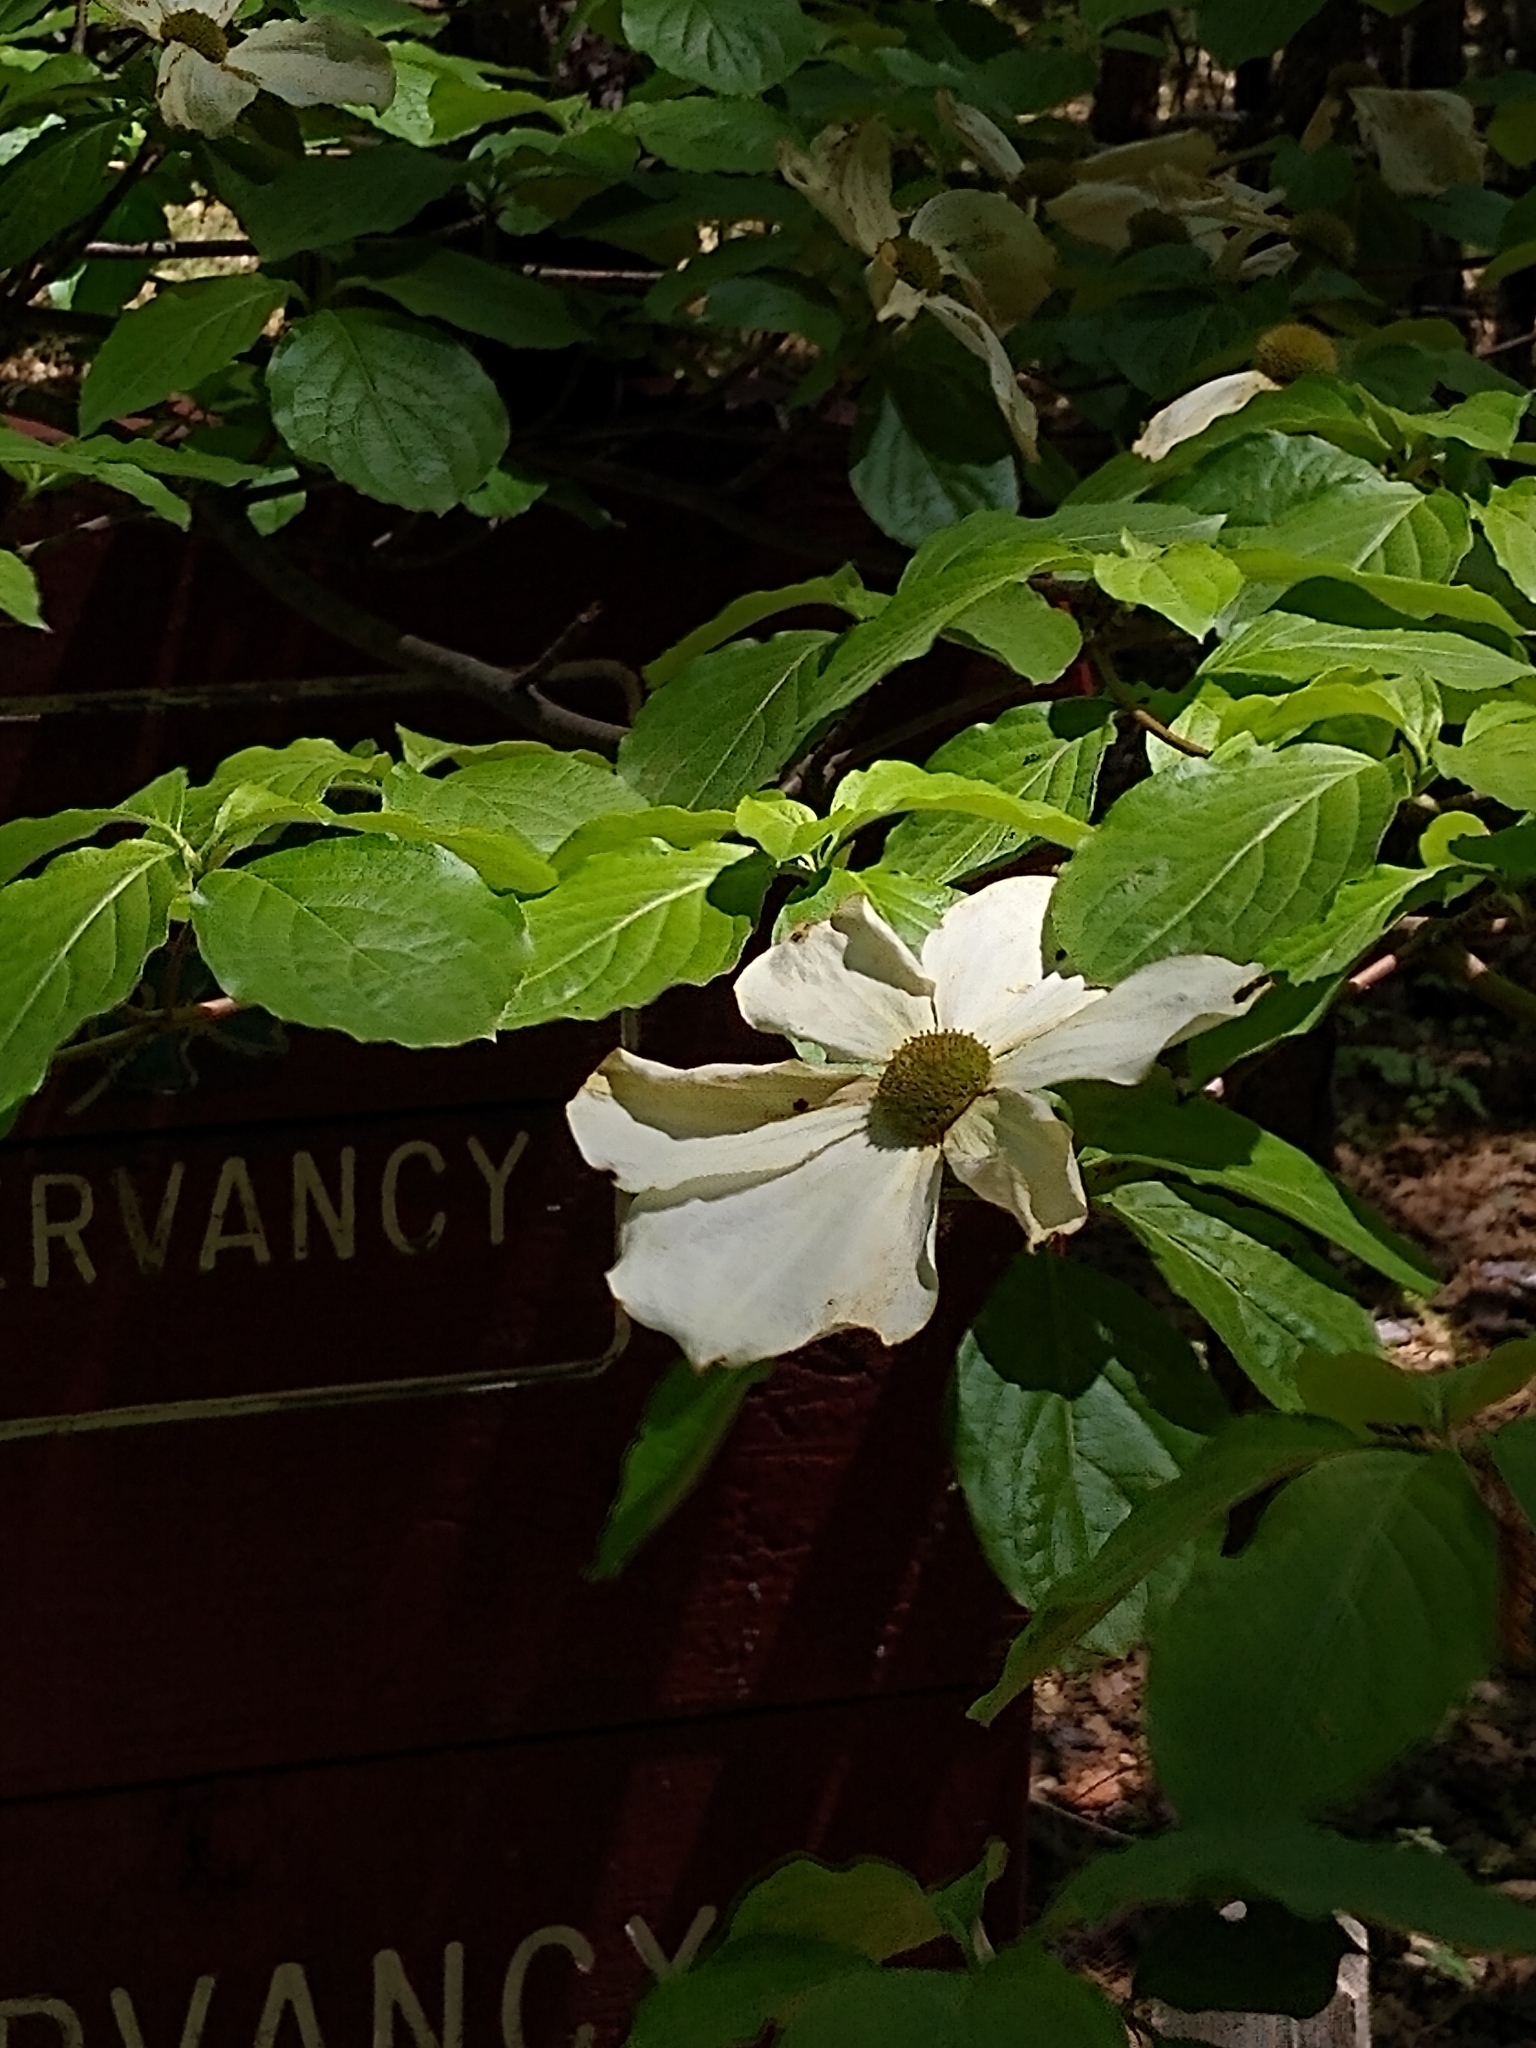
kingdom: Plantae
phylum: Tracheophyta
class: Magnoliopsida
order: Cornales
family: Cornaceae
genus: Cornus
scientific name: Cornus nuttallii
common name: Pacific dogwood
